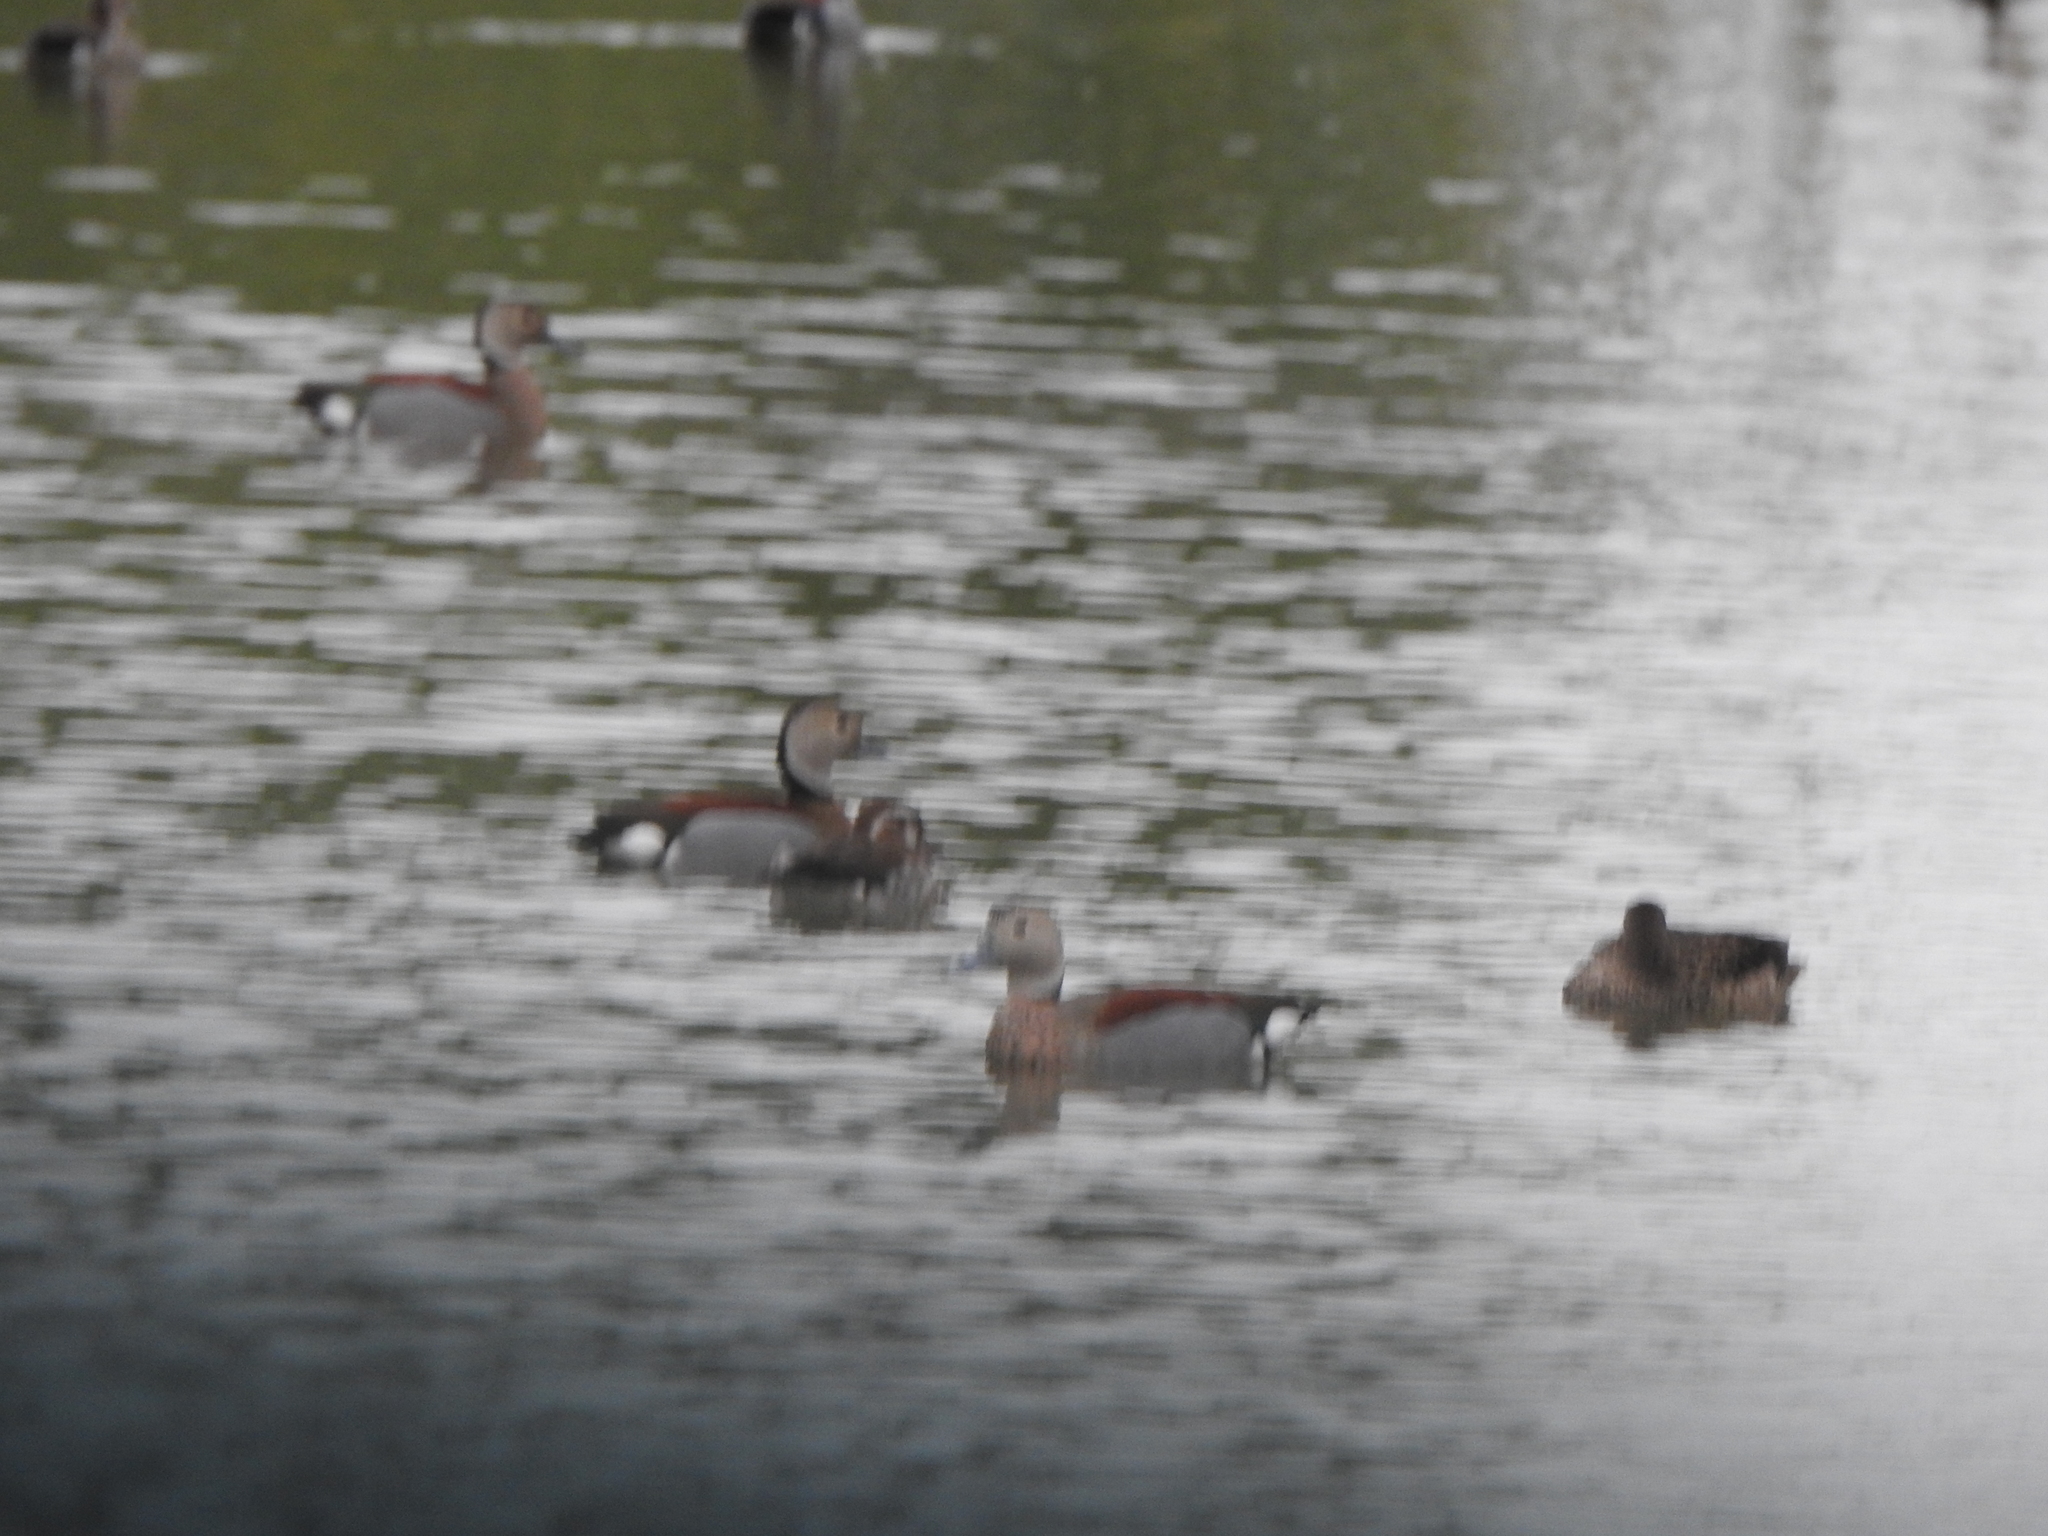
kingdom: Animalia
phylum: Chordata
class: Aves
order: Anseriformes
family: Anatidae
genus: Callonetta
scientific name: Callonetta leucophrys
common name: Ringed teal
